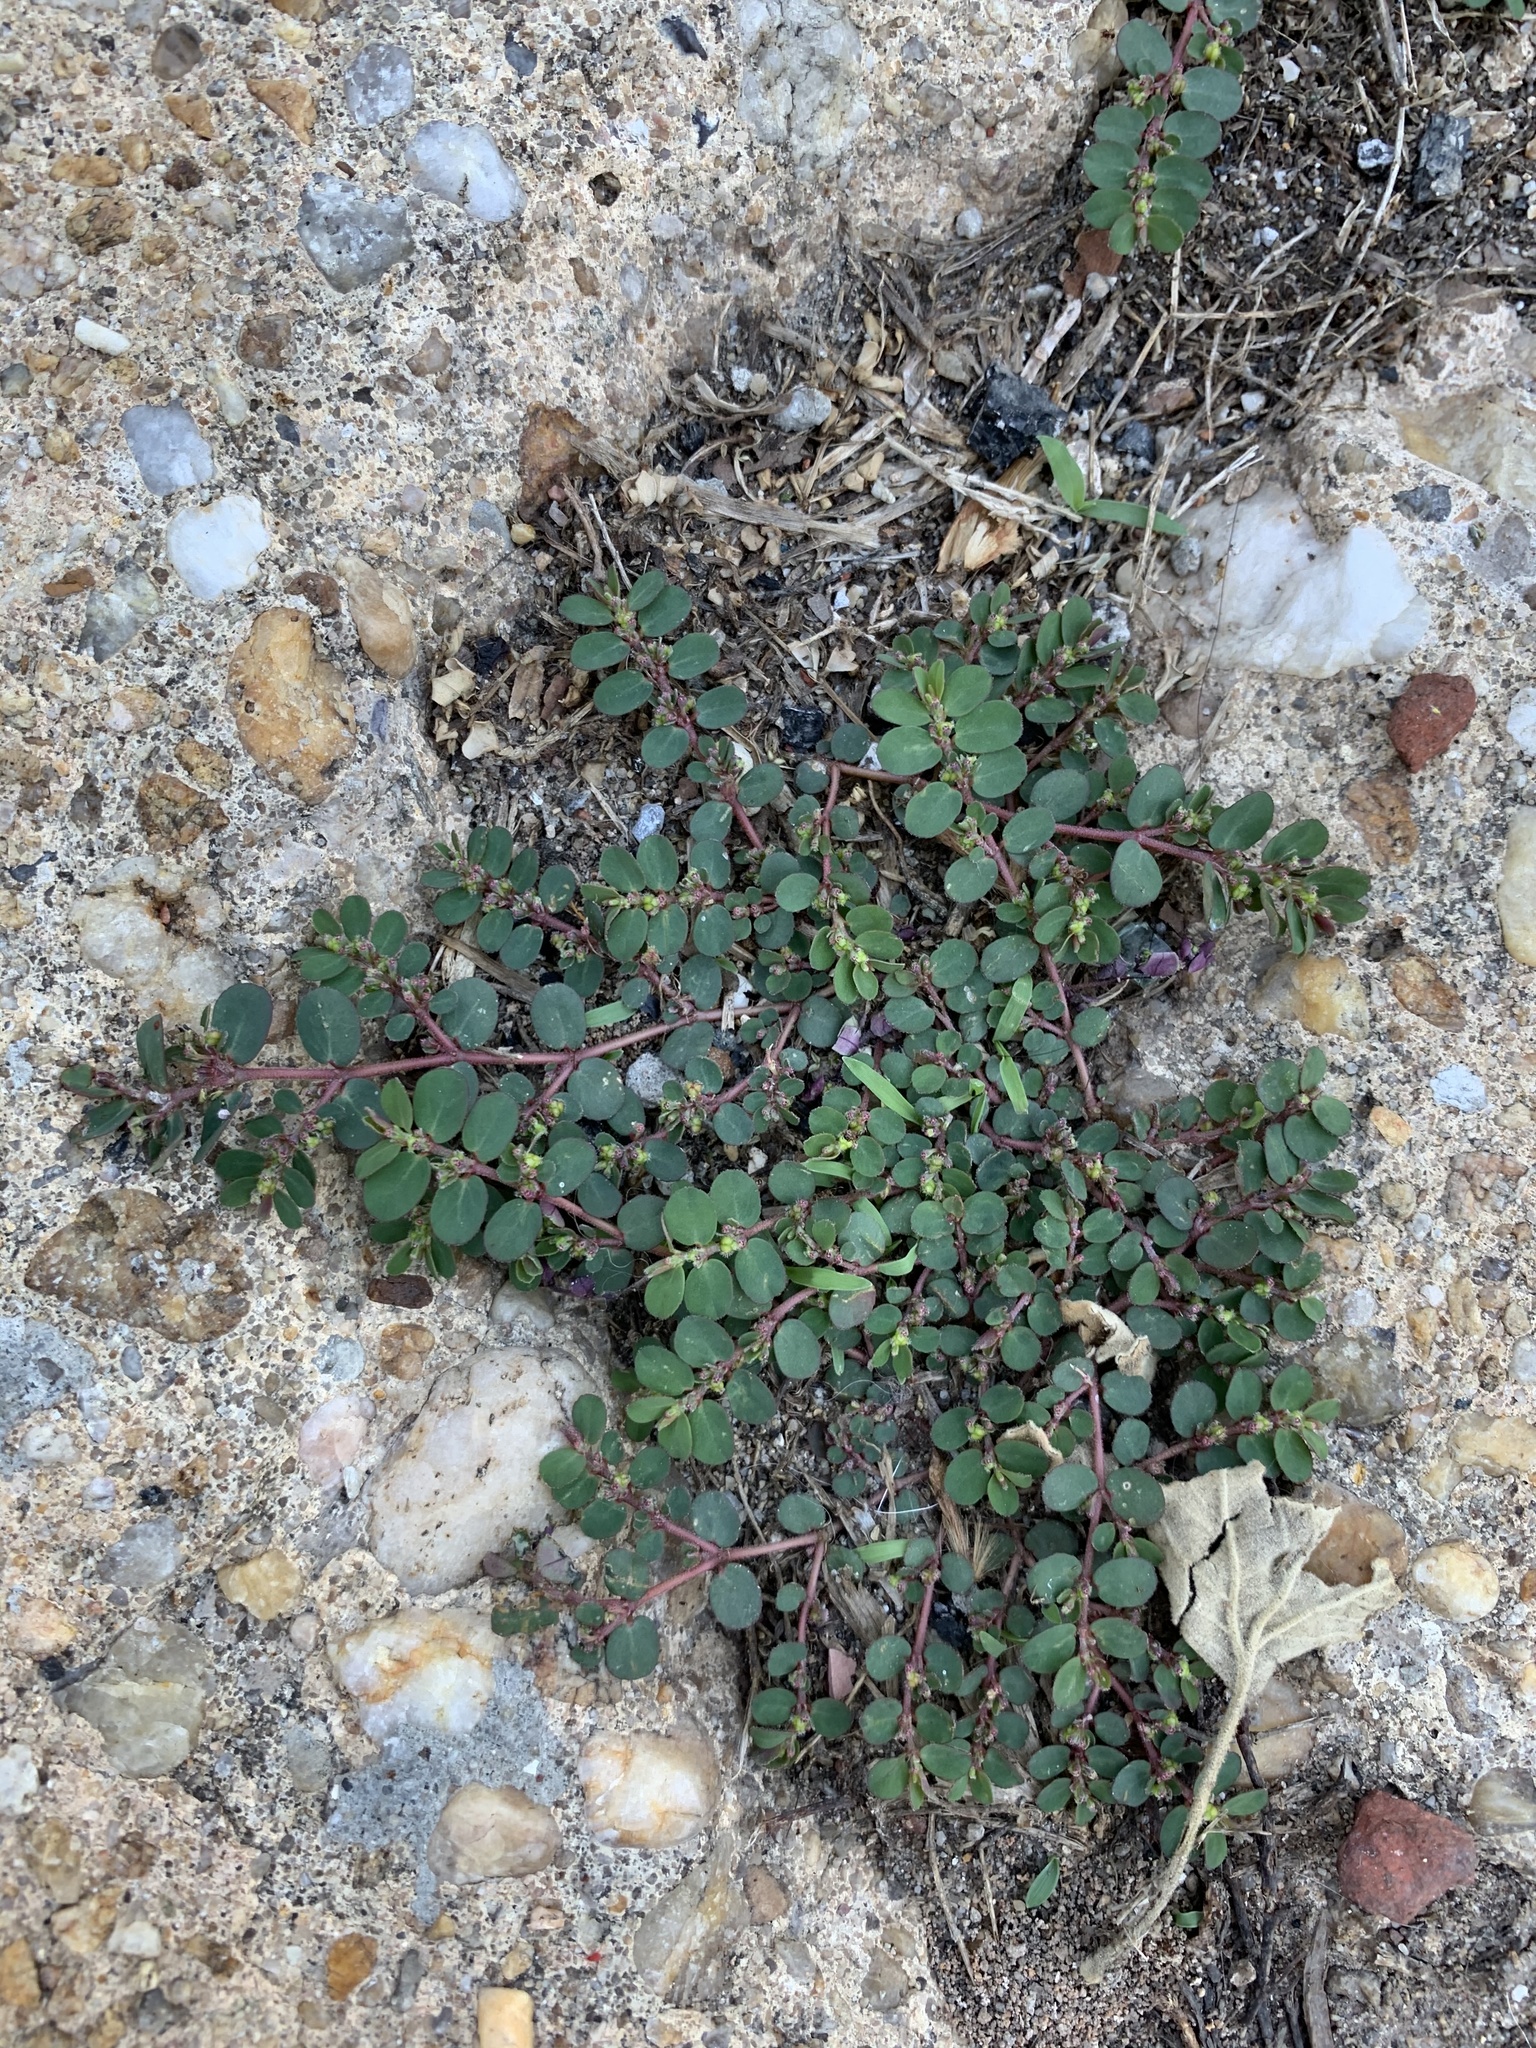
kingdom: Plantae
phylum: Tracheophyta
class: Magnoliopsida
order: Malpighiales
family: Euphorbiaceae
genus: Euphorbia
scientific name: Euphorbia prostrata
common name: Prostrate sandmat
